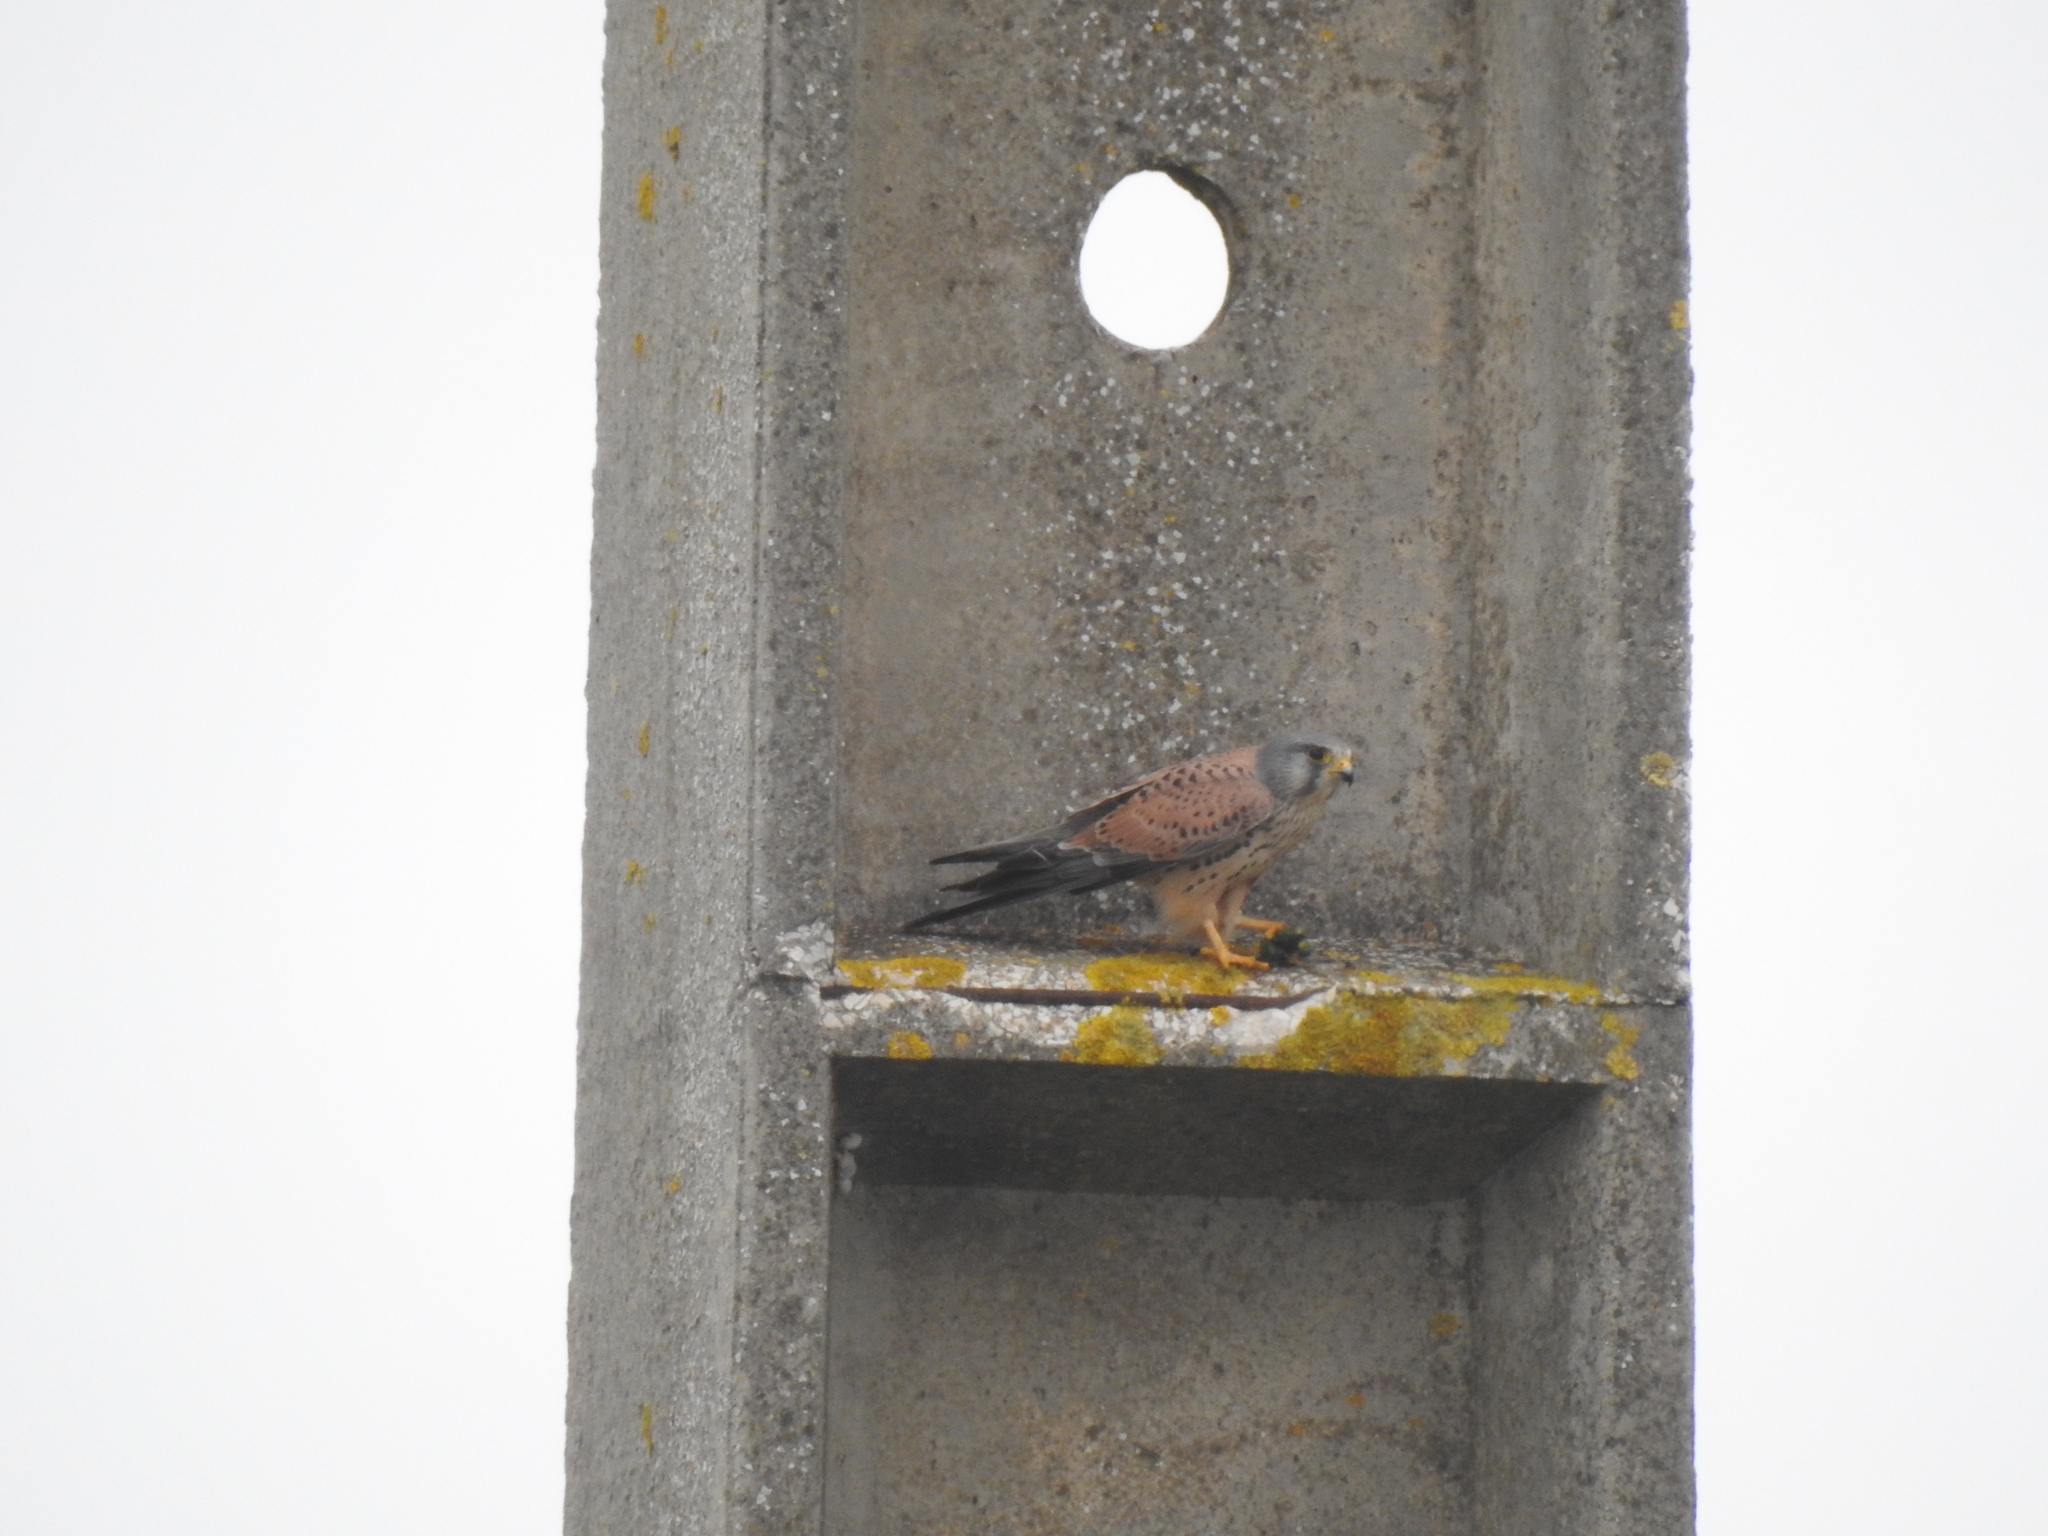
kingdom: Animalia
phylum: Chordata
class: Aves
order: Falconiformes
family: Falconidae
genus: Falco
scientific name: Falco tinnunculus
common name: Common kestrel
